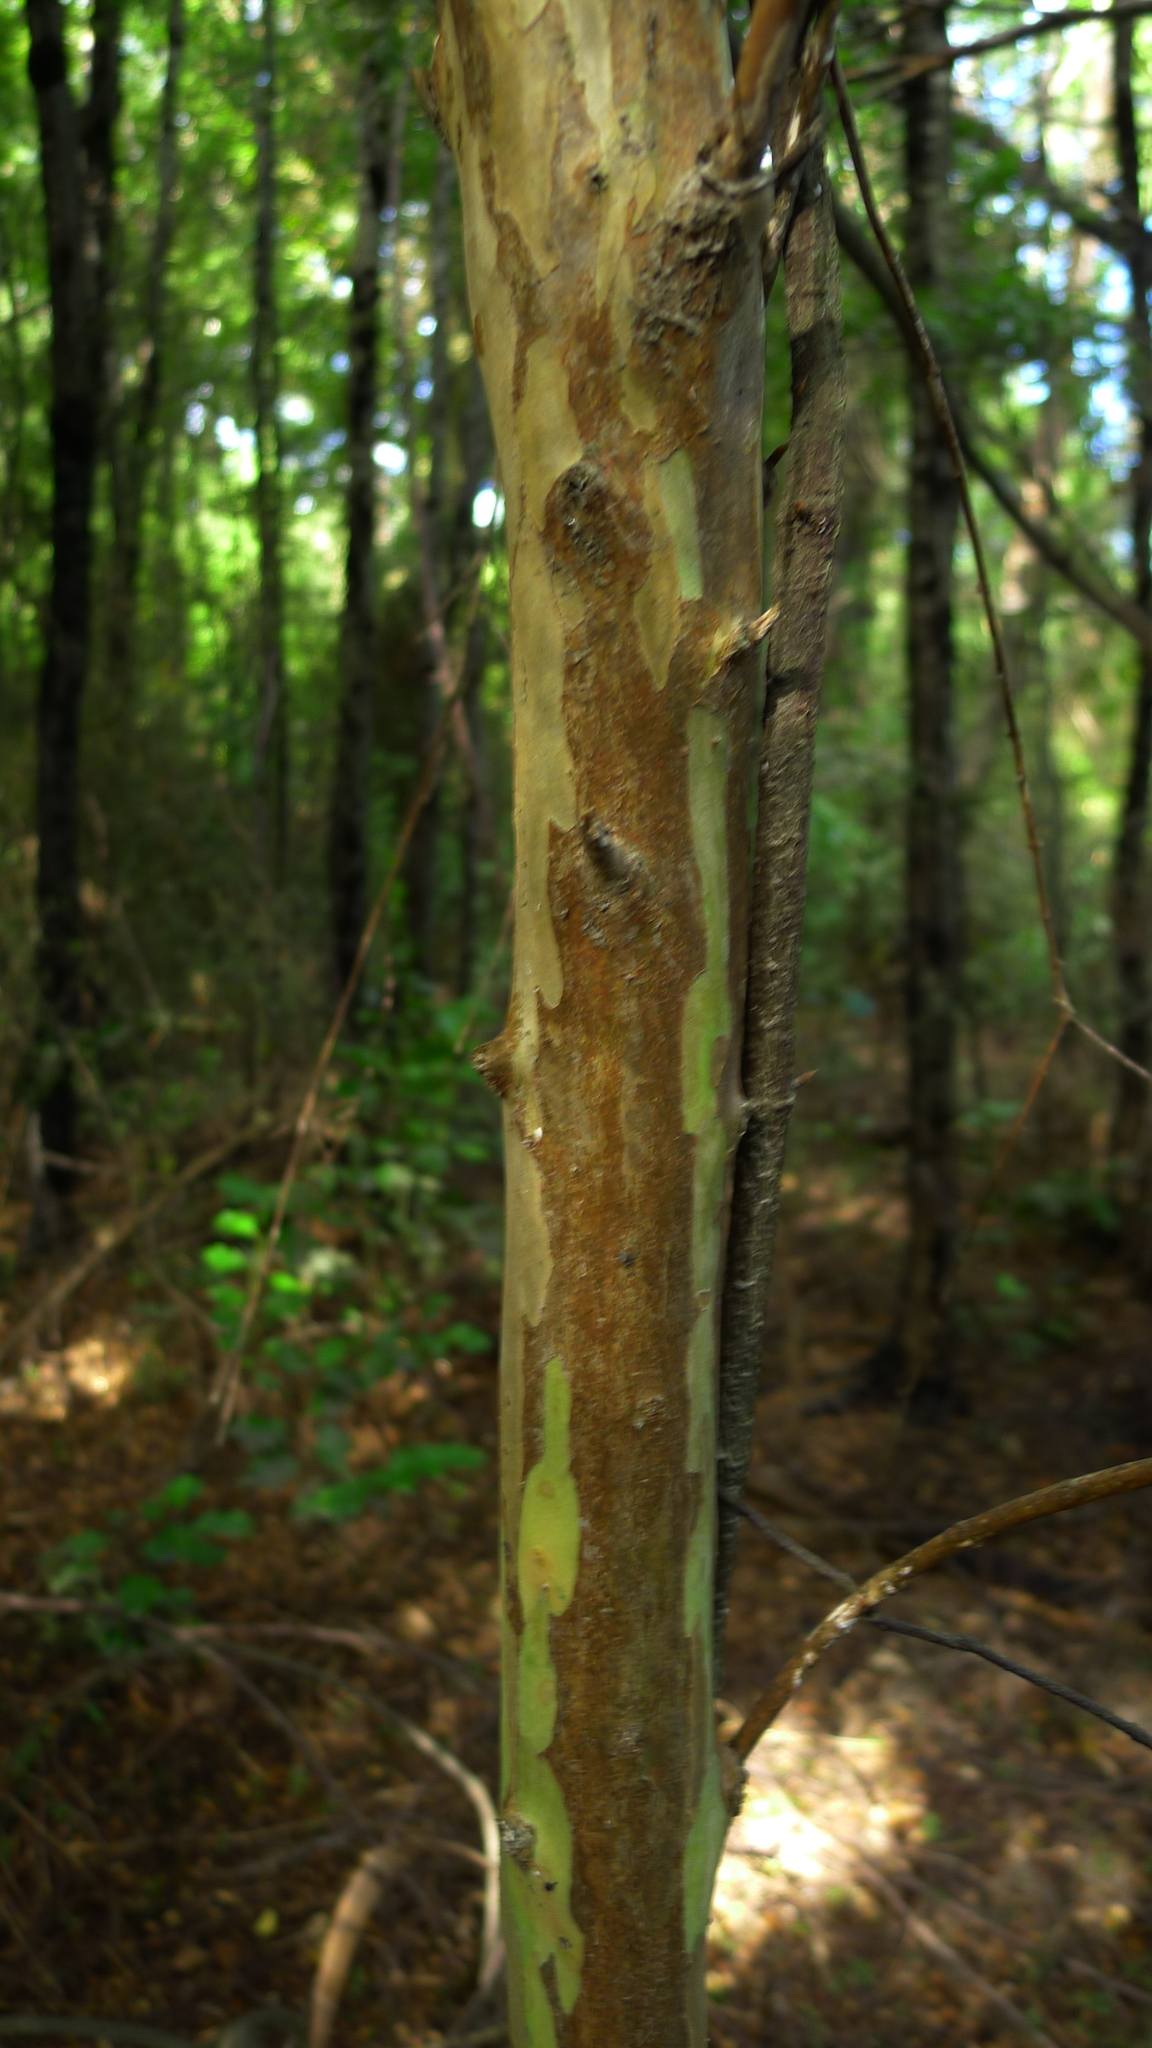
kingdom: Plantae
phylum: Tracheophyta
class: Magnoliopsida
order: Myrtales
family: Myrtaceae
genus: Lophomyrtus
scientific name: Lophomyrtus obcordata
